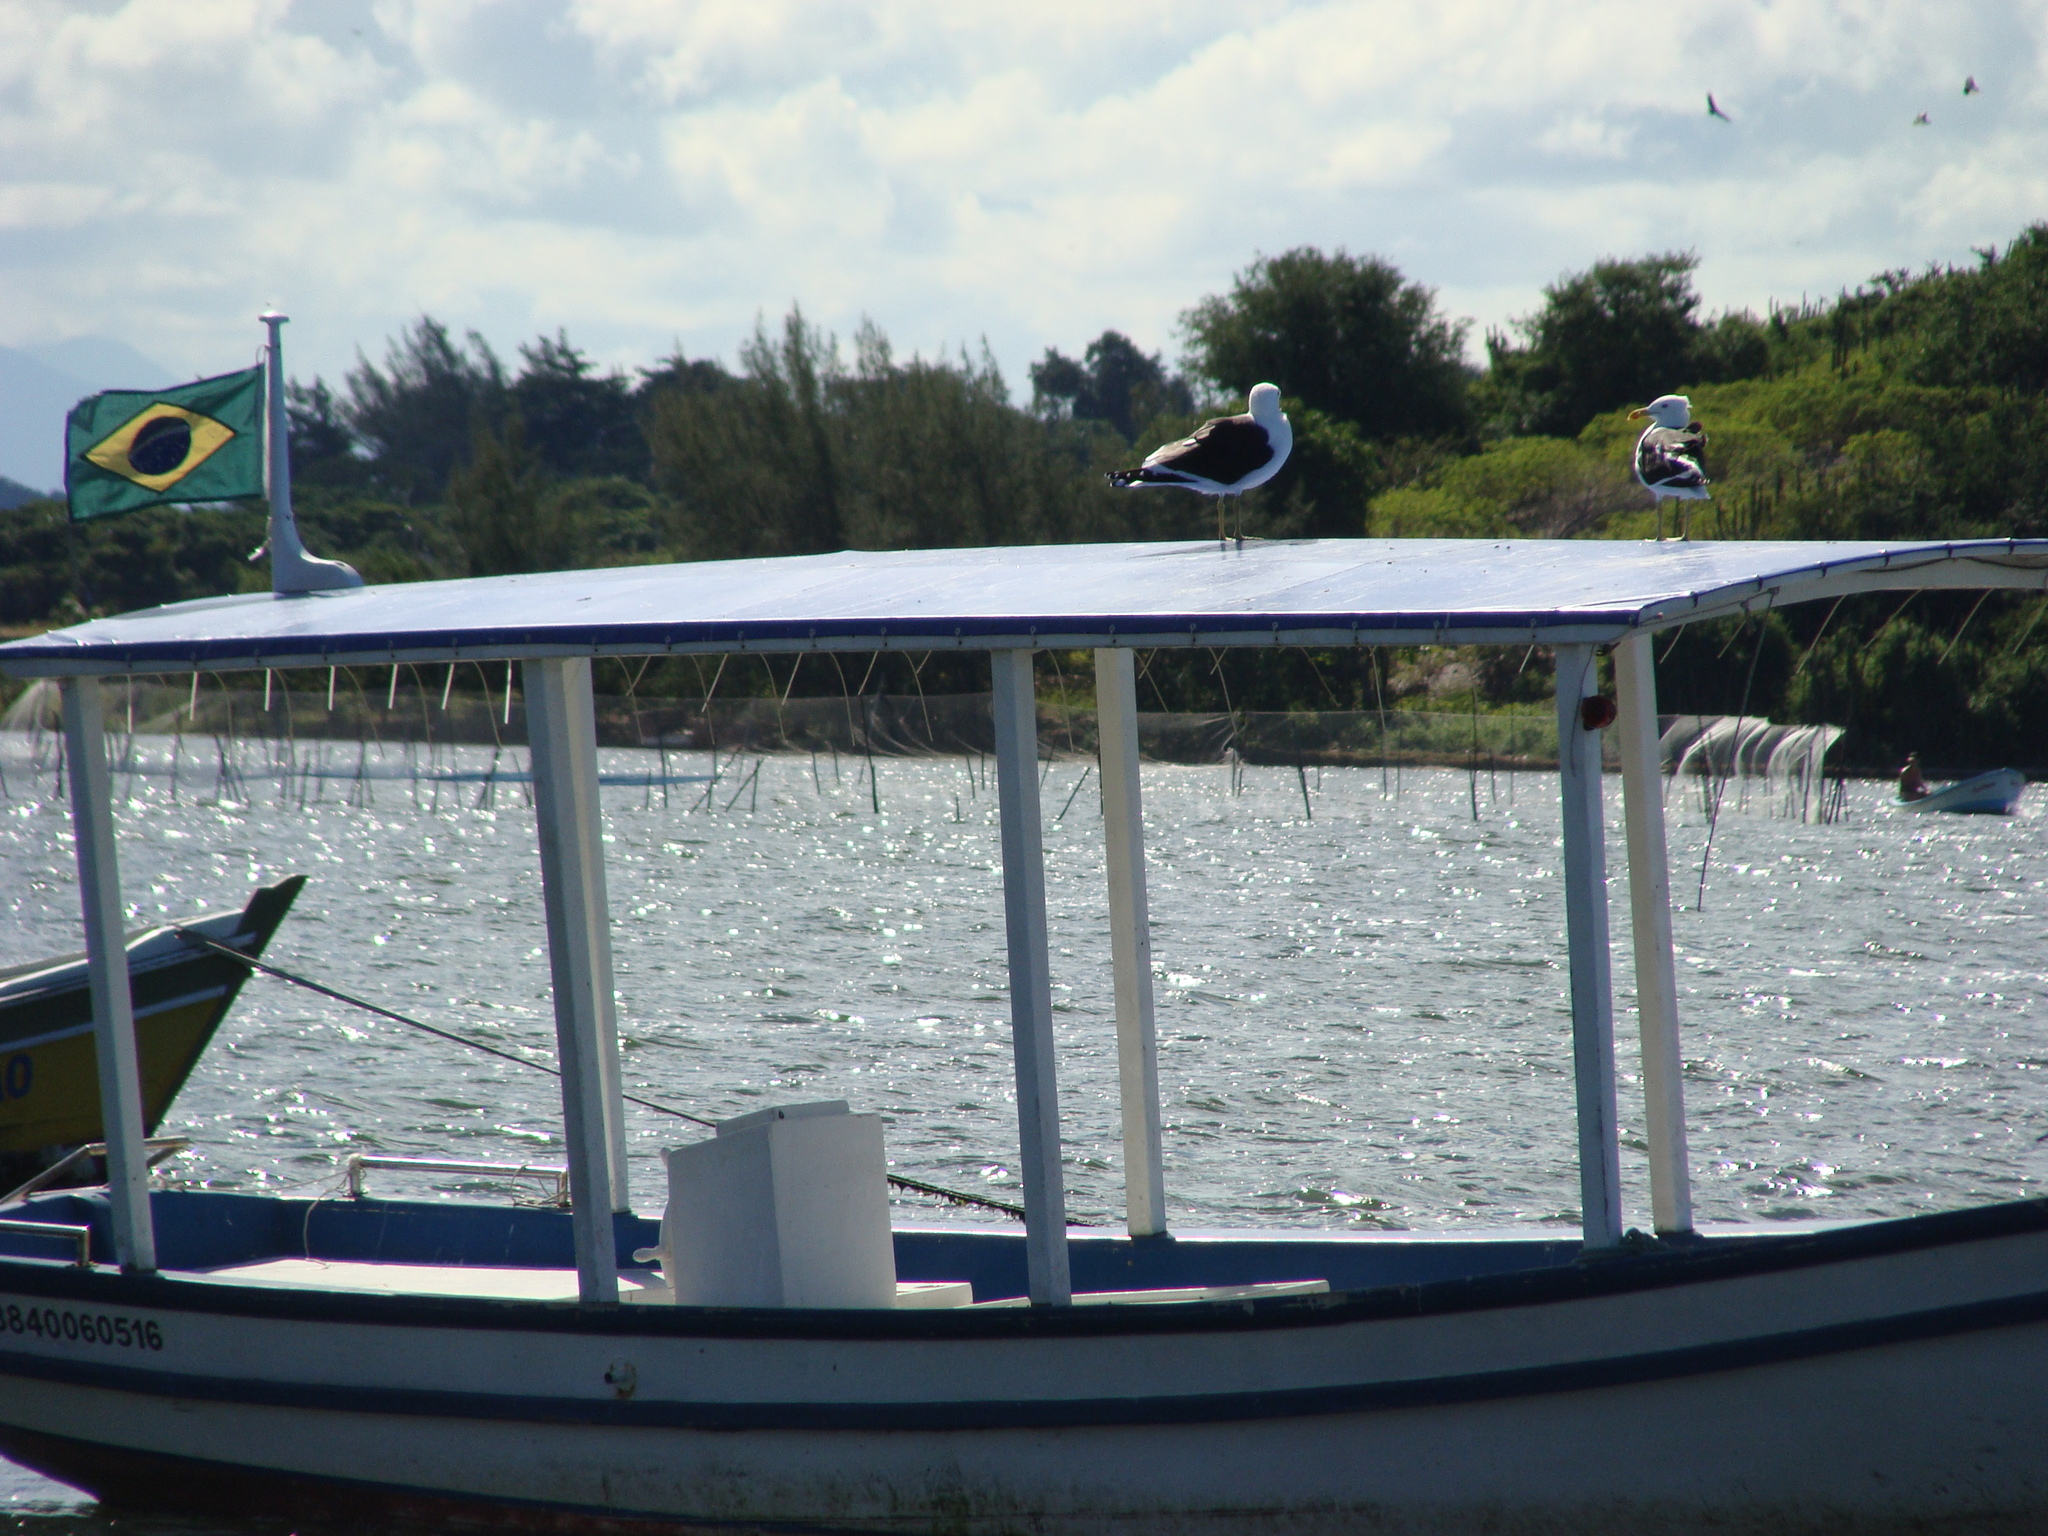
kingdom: Animalia
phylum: Chordata
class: Aves
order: Charadriiformes
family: Laridae
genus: Larus
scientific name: Larus dominicanus
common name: Kelp gull
